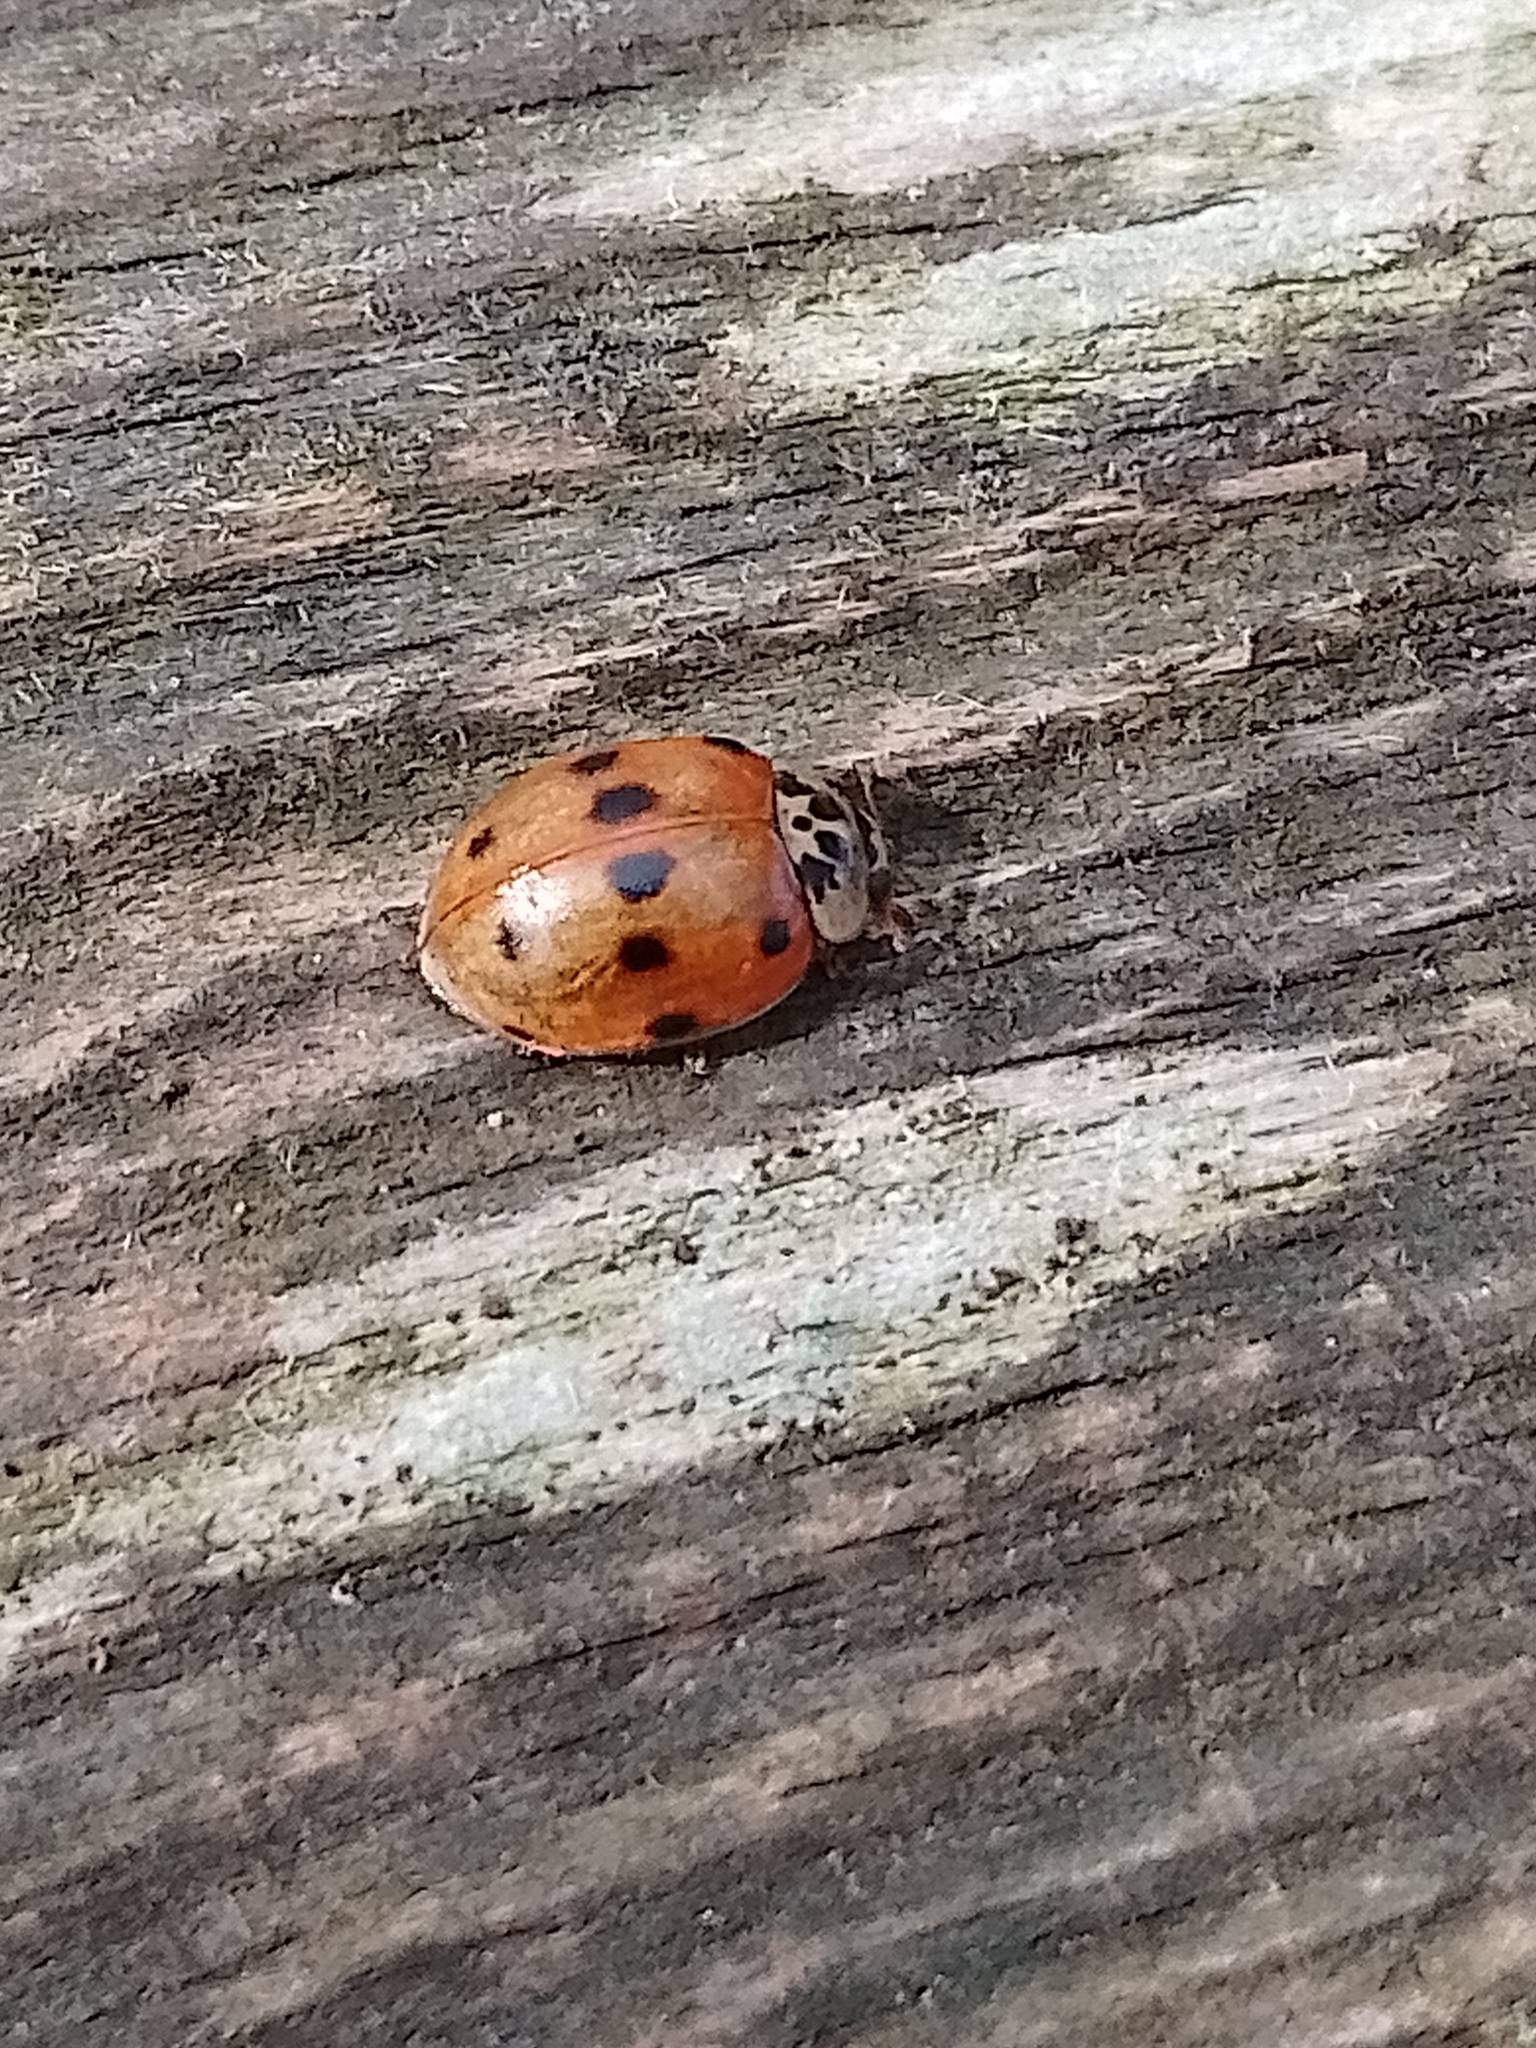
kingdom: Animalia
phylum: Arthropoda
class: Insecta
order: Coleoptera
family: Coccinellidae
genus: Adalia
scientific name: Adalia decempunctata
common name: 10-spot ladybird
